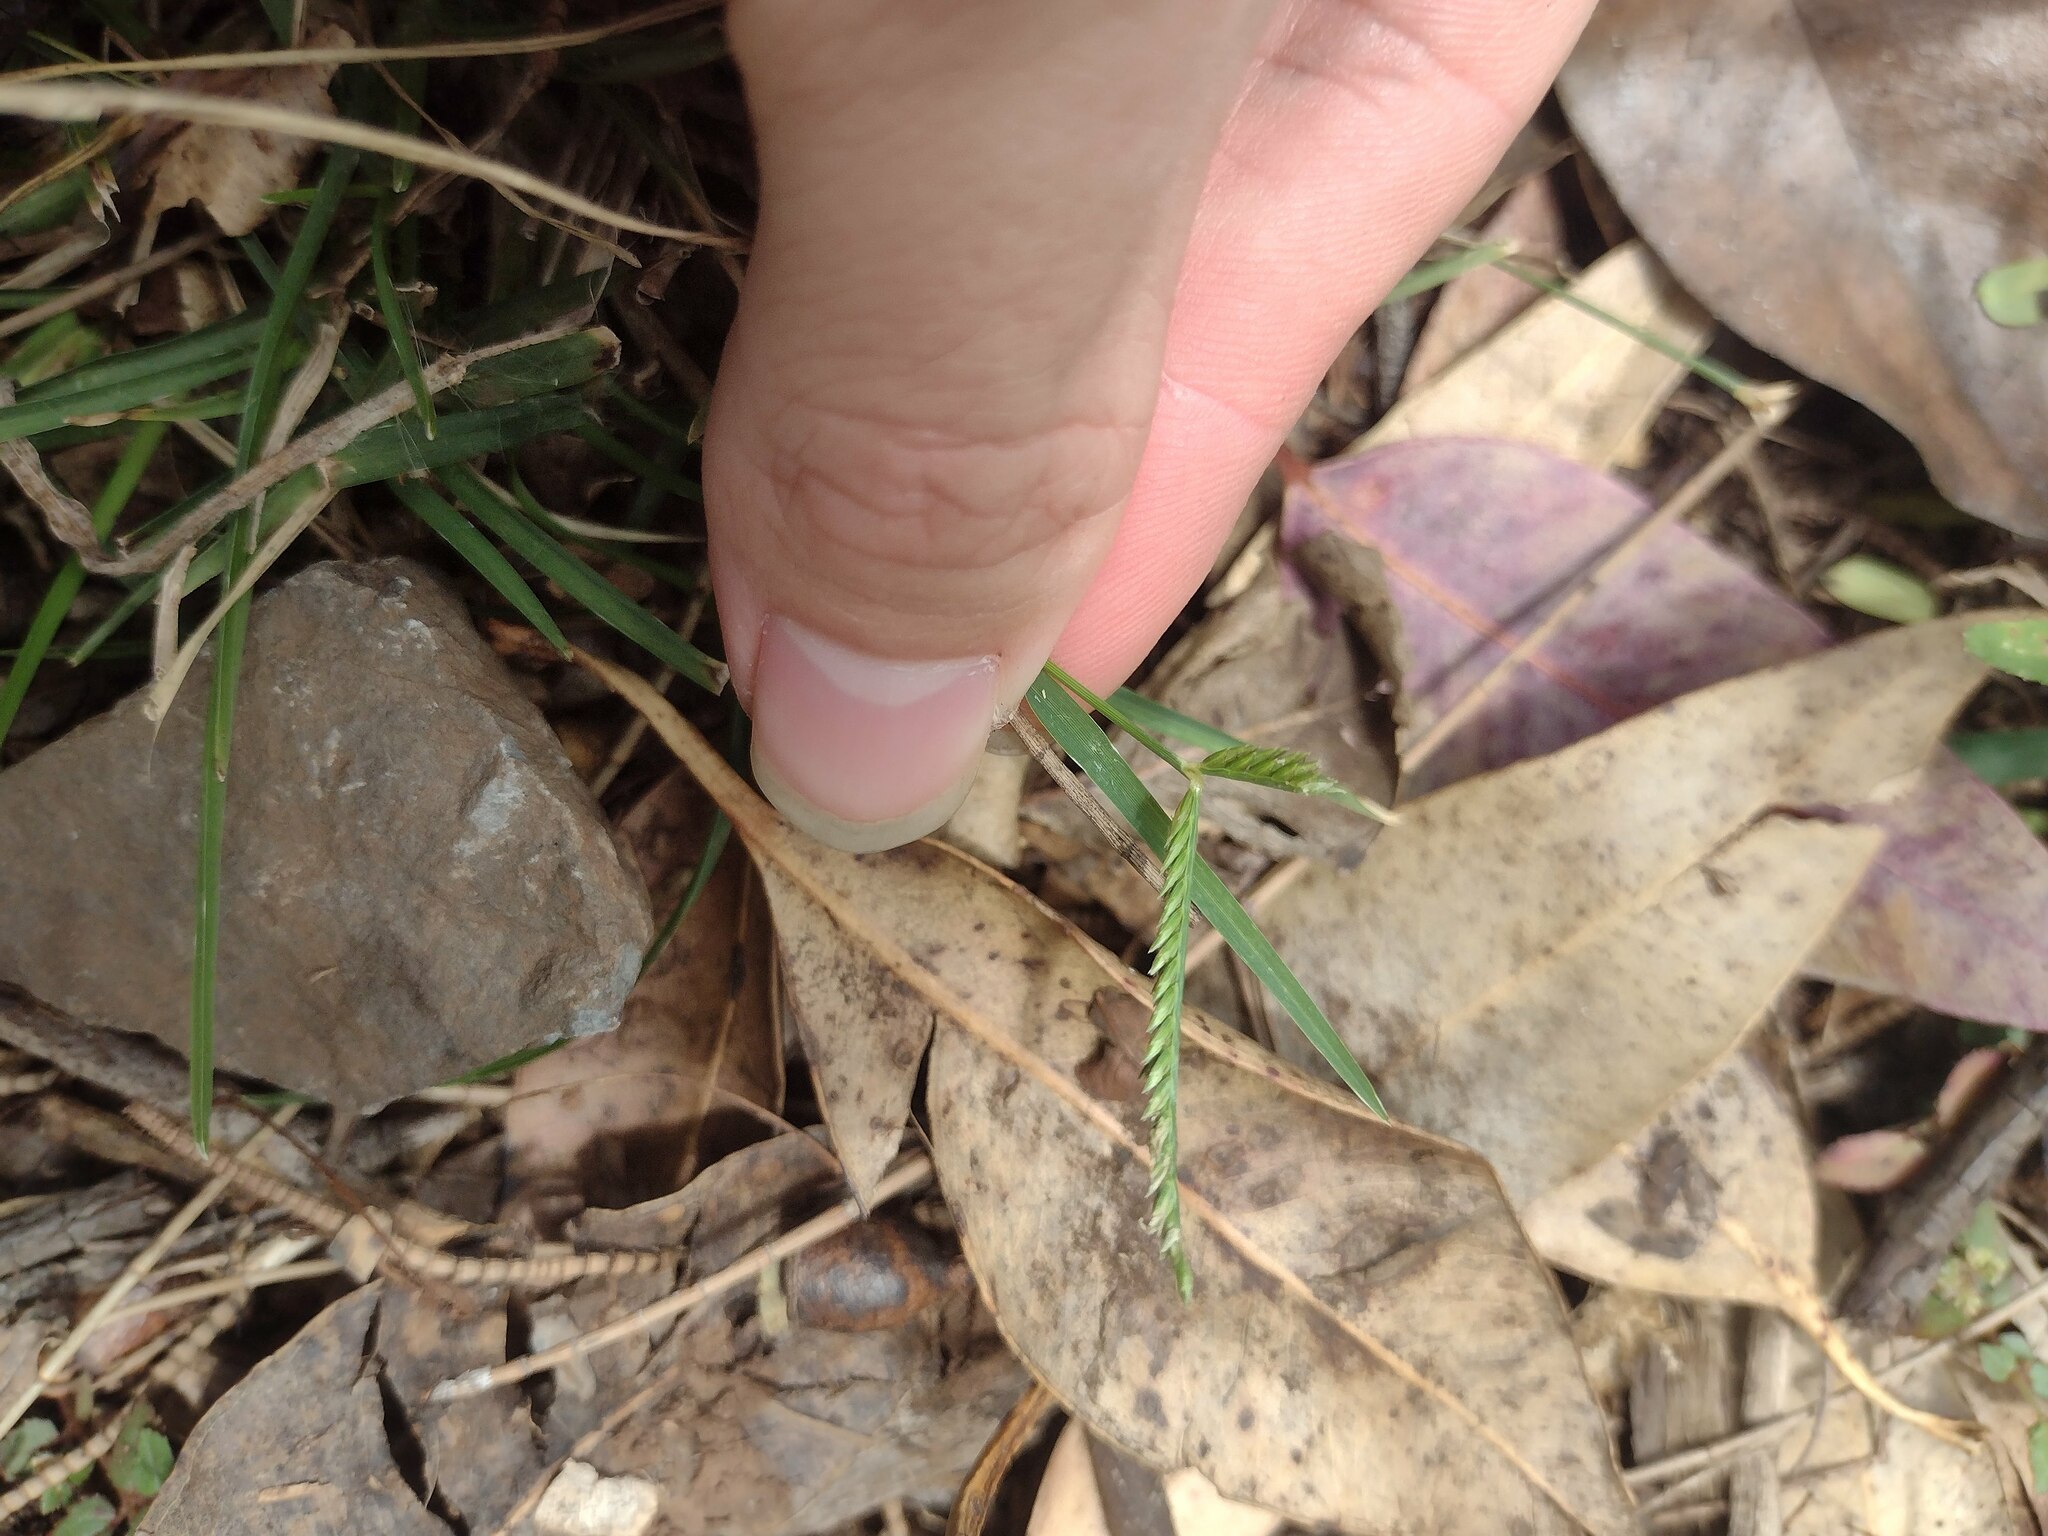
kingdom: Plantae
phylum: Tracheophyta
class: Liliopsida
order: Poales
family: Poaceae
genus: Eleusine
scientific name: Eleusine indica
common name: Yard-grass
